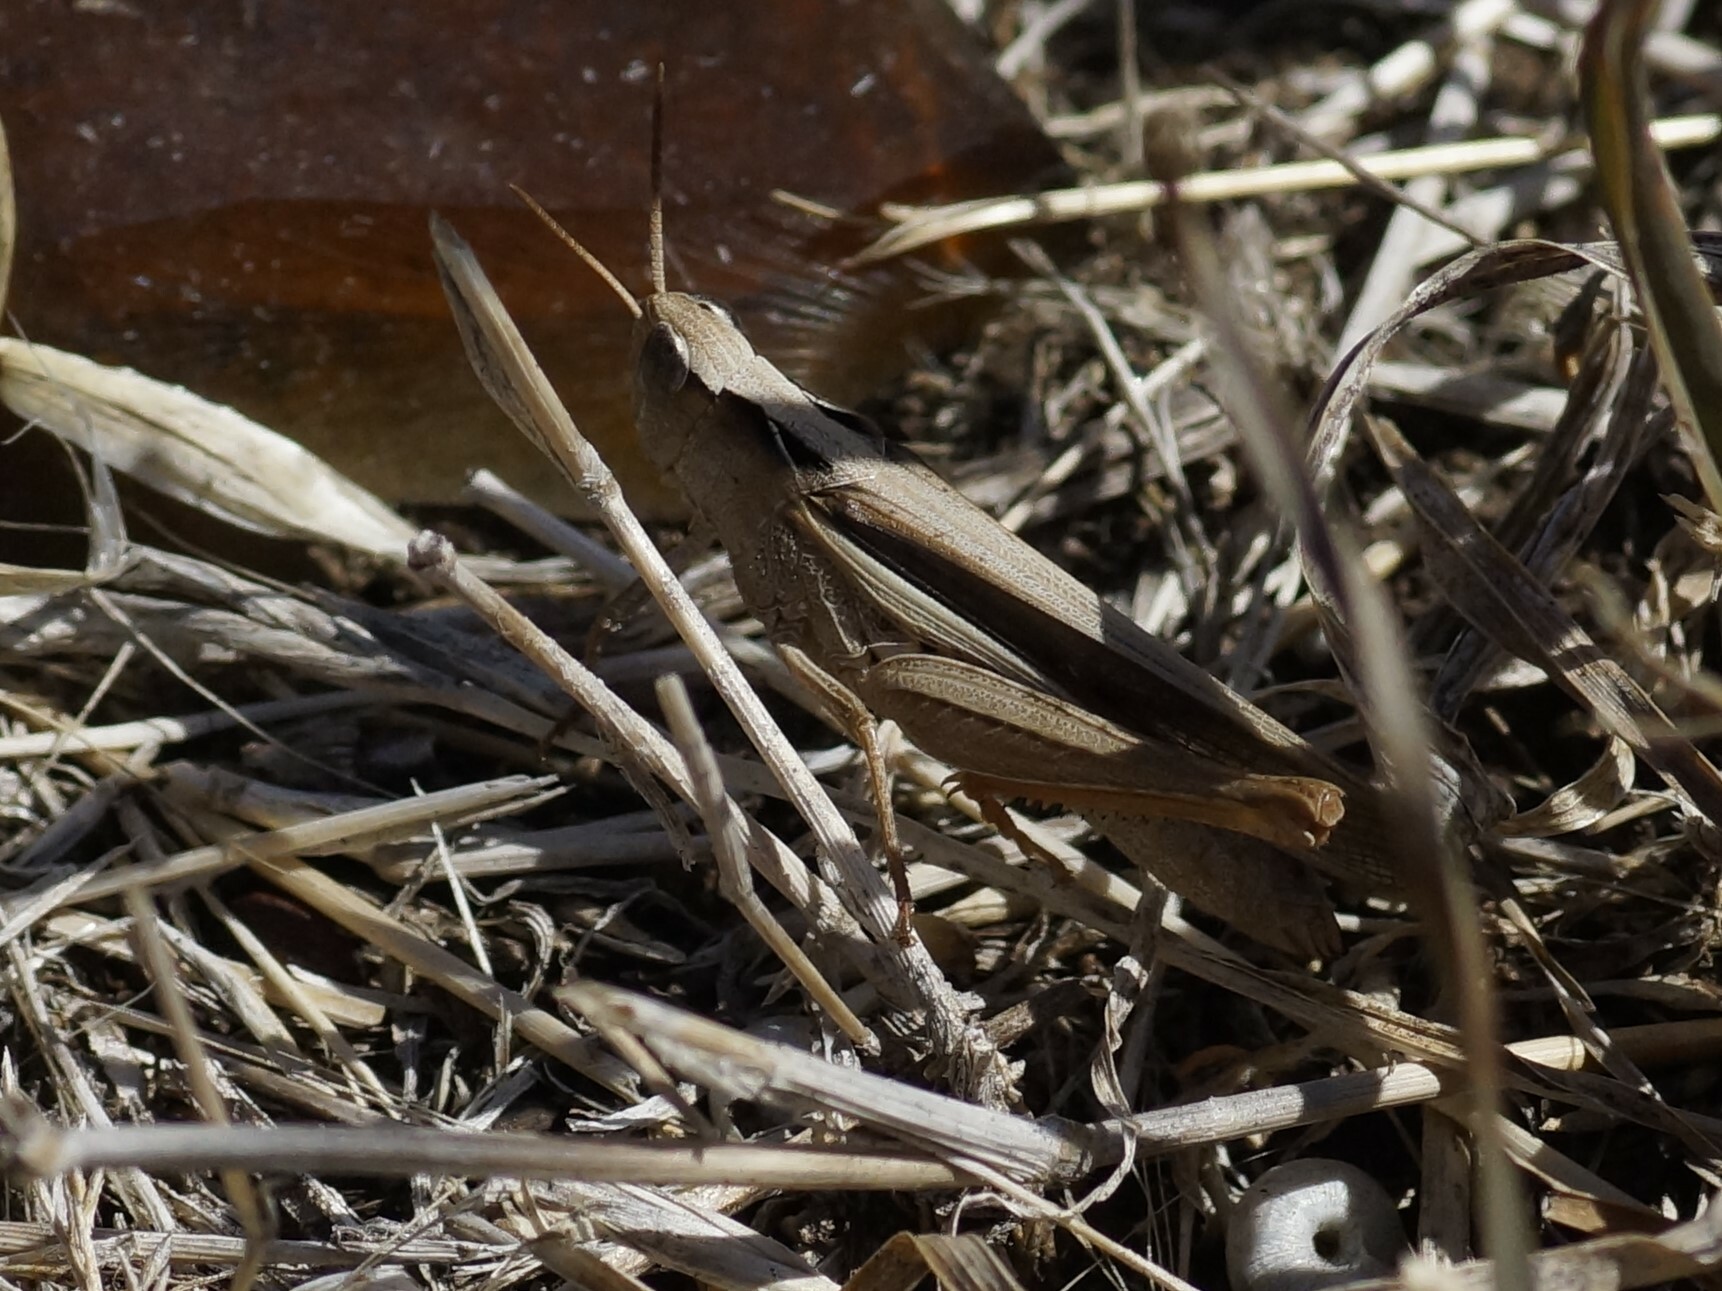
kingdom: Animalia
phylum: Arthropoda
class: Insecta
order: Orthoptera
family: Acrididae
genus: Schizobothrus
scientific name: Schizobothrus flavovittatus
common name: Disappearing grasshopper
